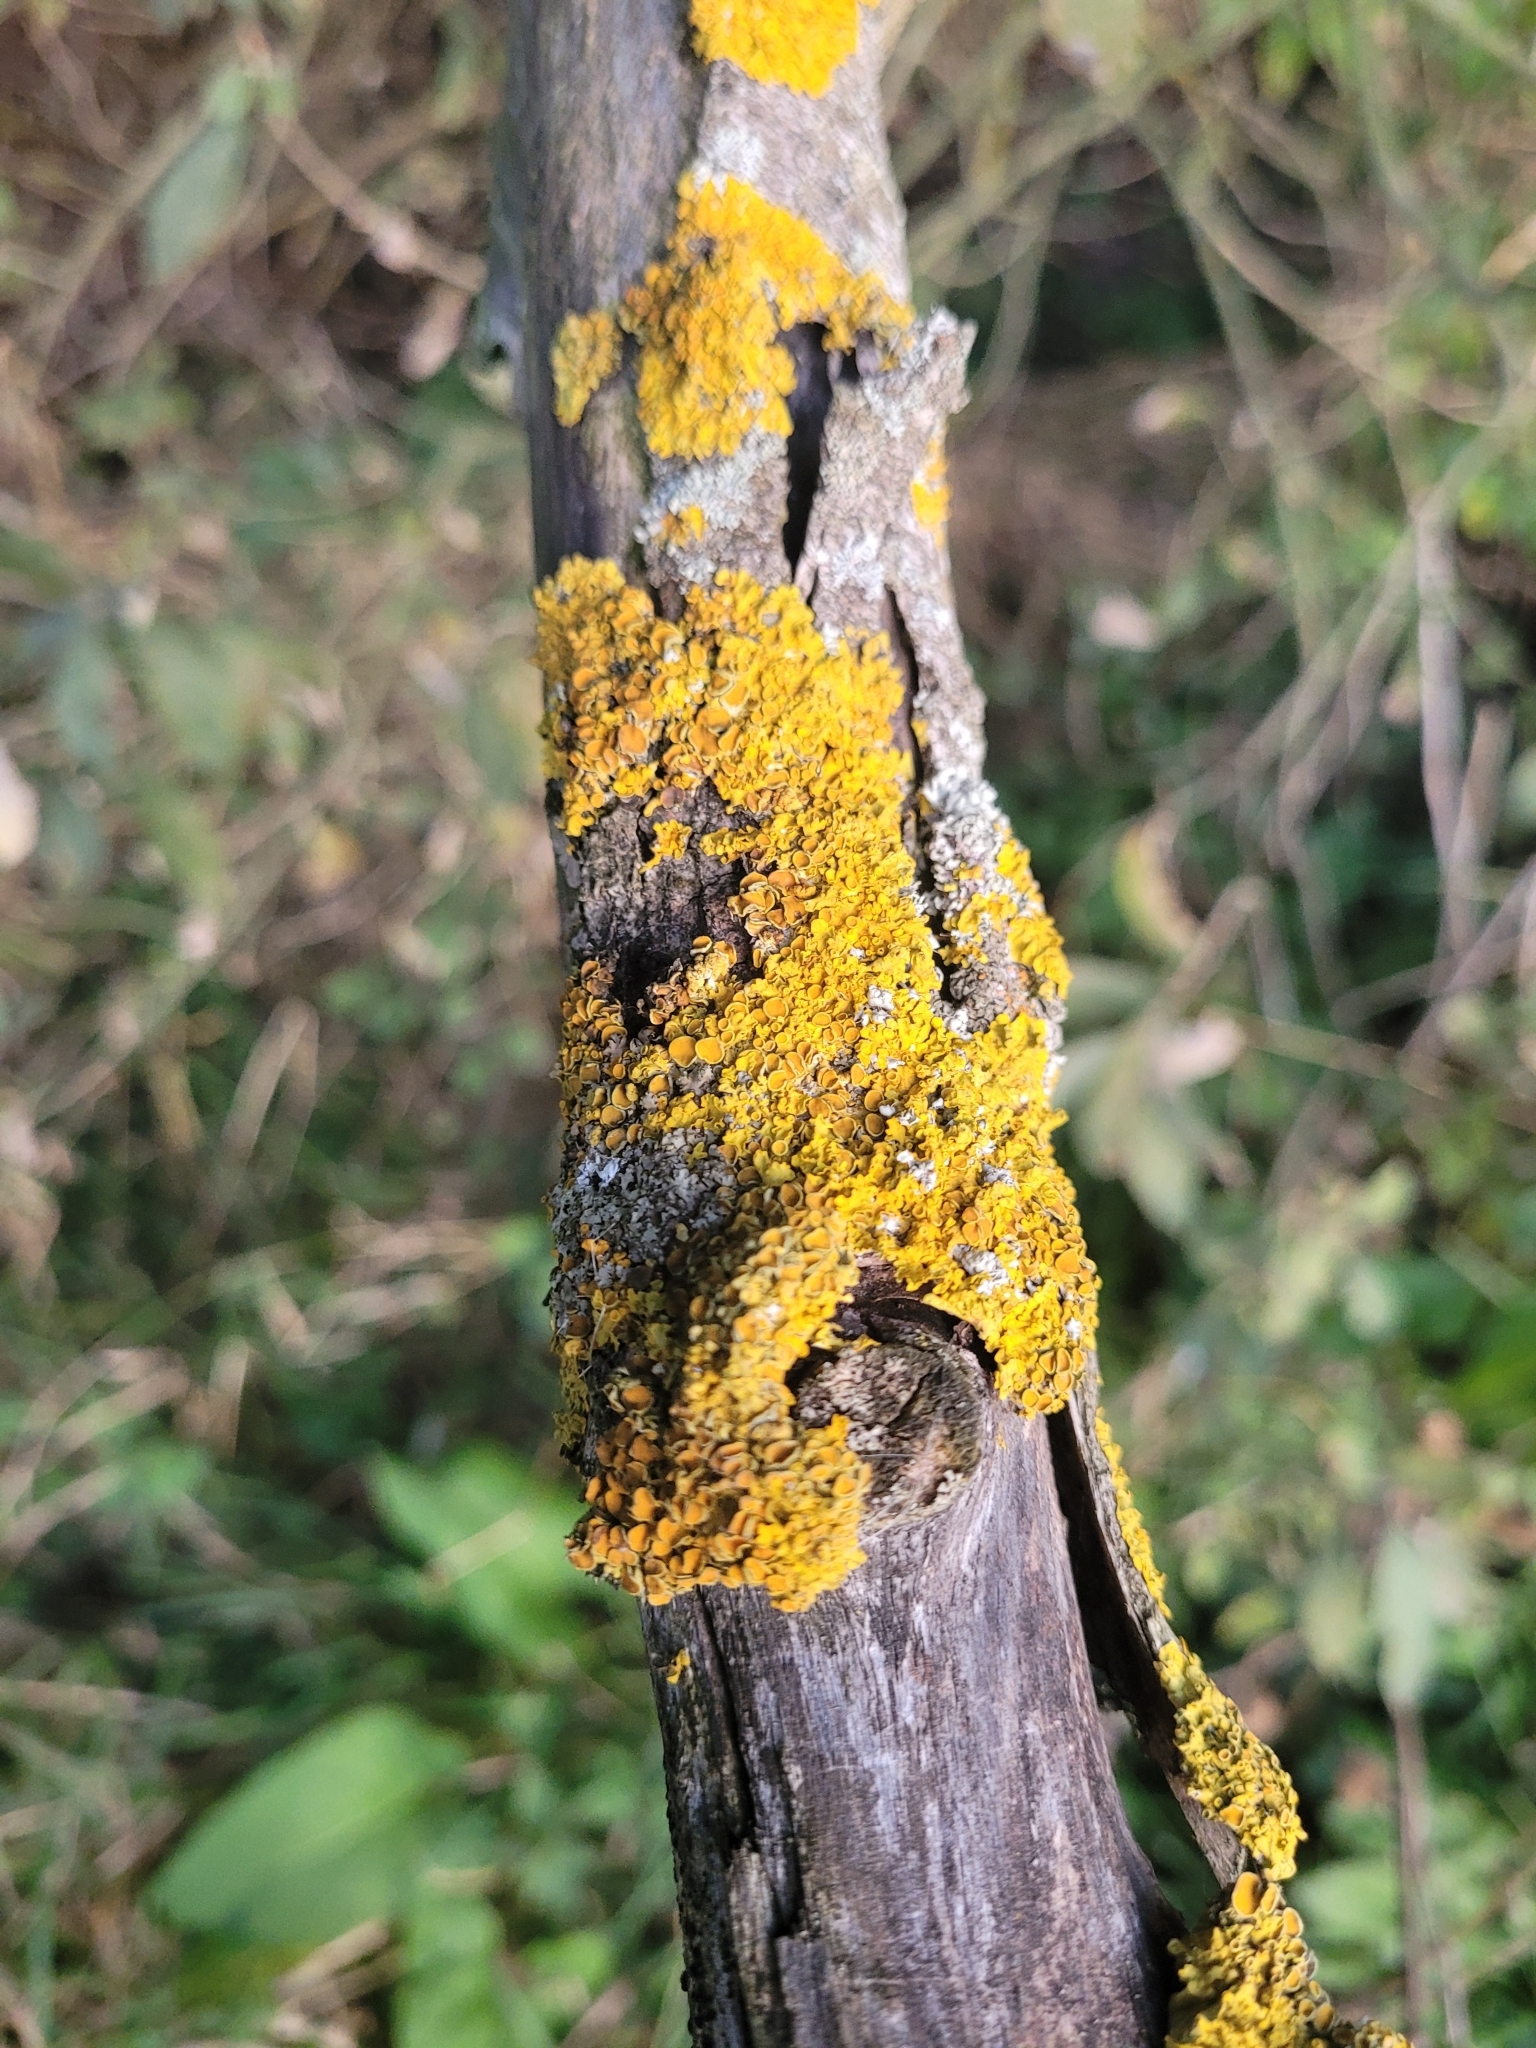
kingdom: Fungi
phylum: Ascomycota
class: Lecanoromycetes
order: Teloschistales
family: Teloschistaceae
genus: Xanthoria
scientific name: Xanthoria parietina
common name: Common orange lichen
